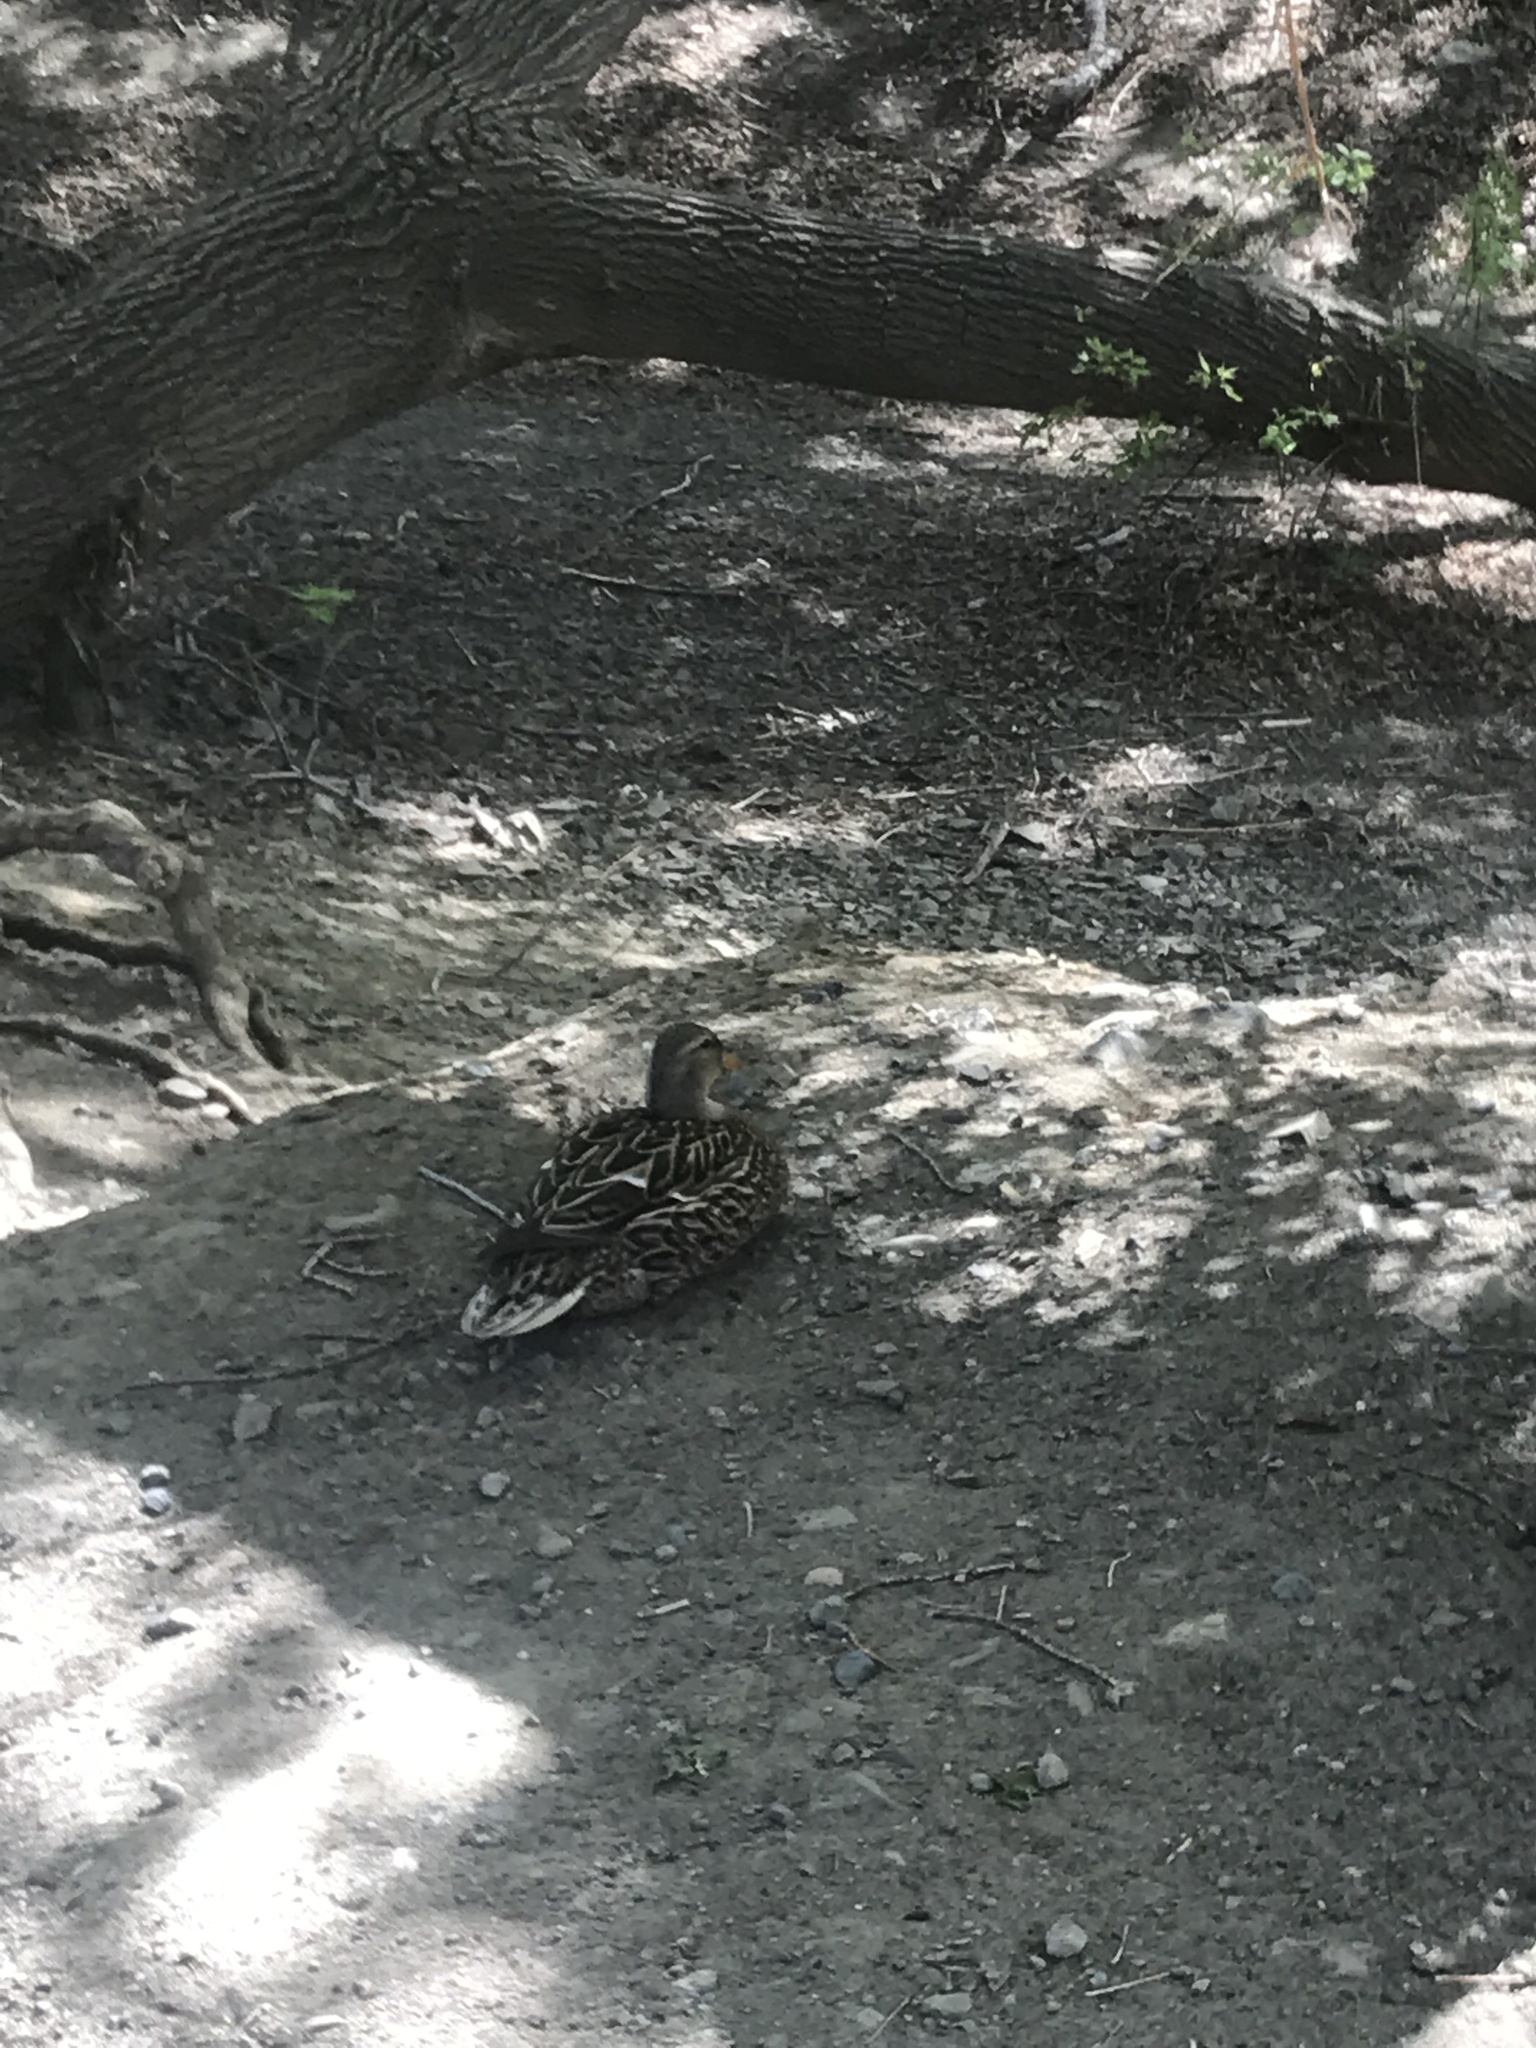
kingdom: Animalia
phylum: Chordata
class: Aves
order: Anseriformes
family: Anatidae
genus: Anas
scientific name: Anas platyrhynchos
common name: Mallard
